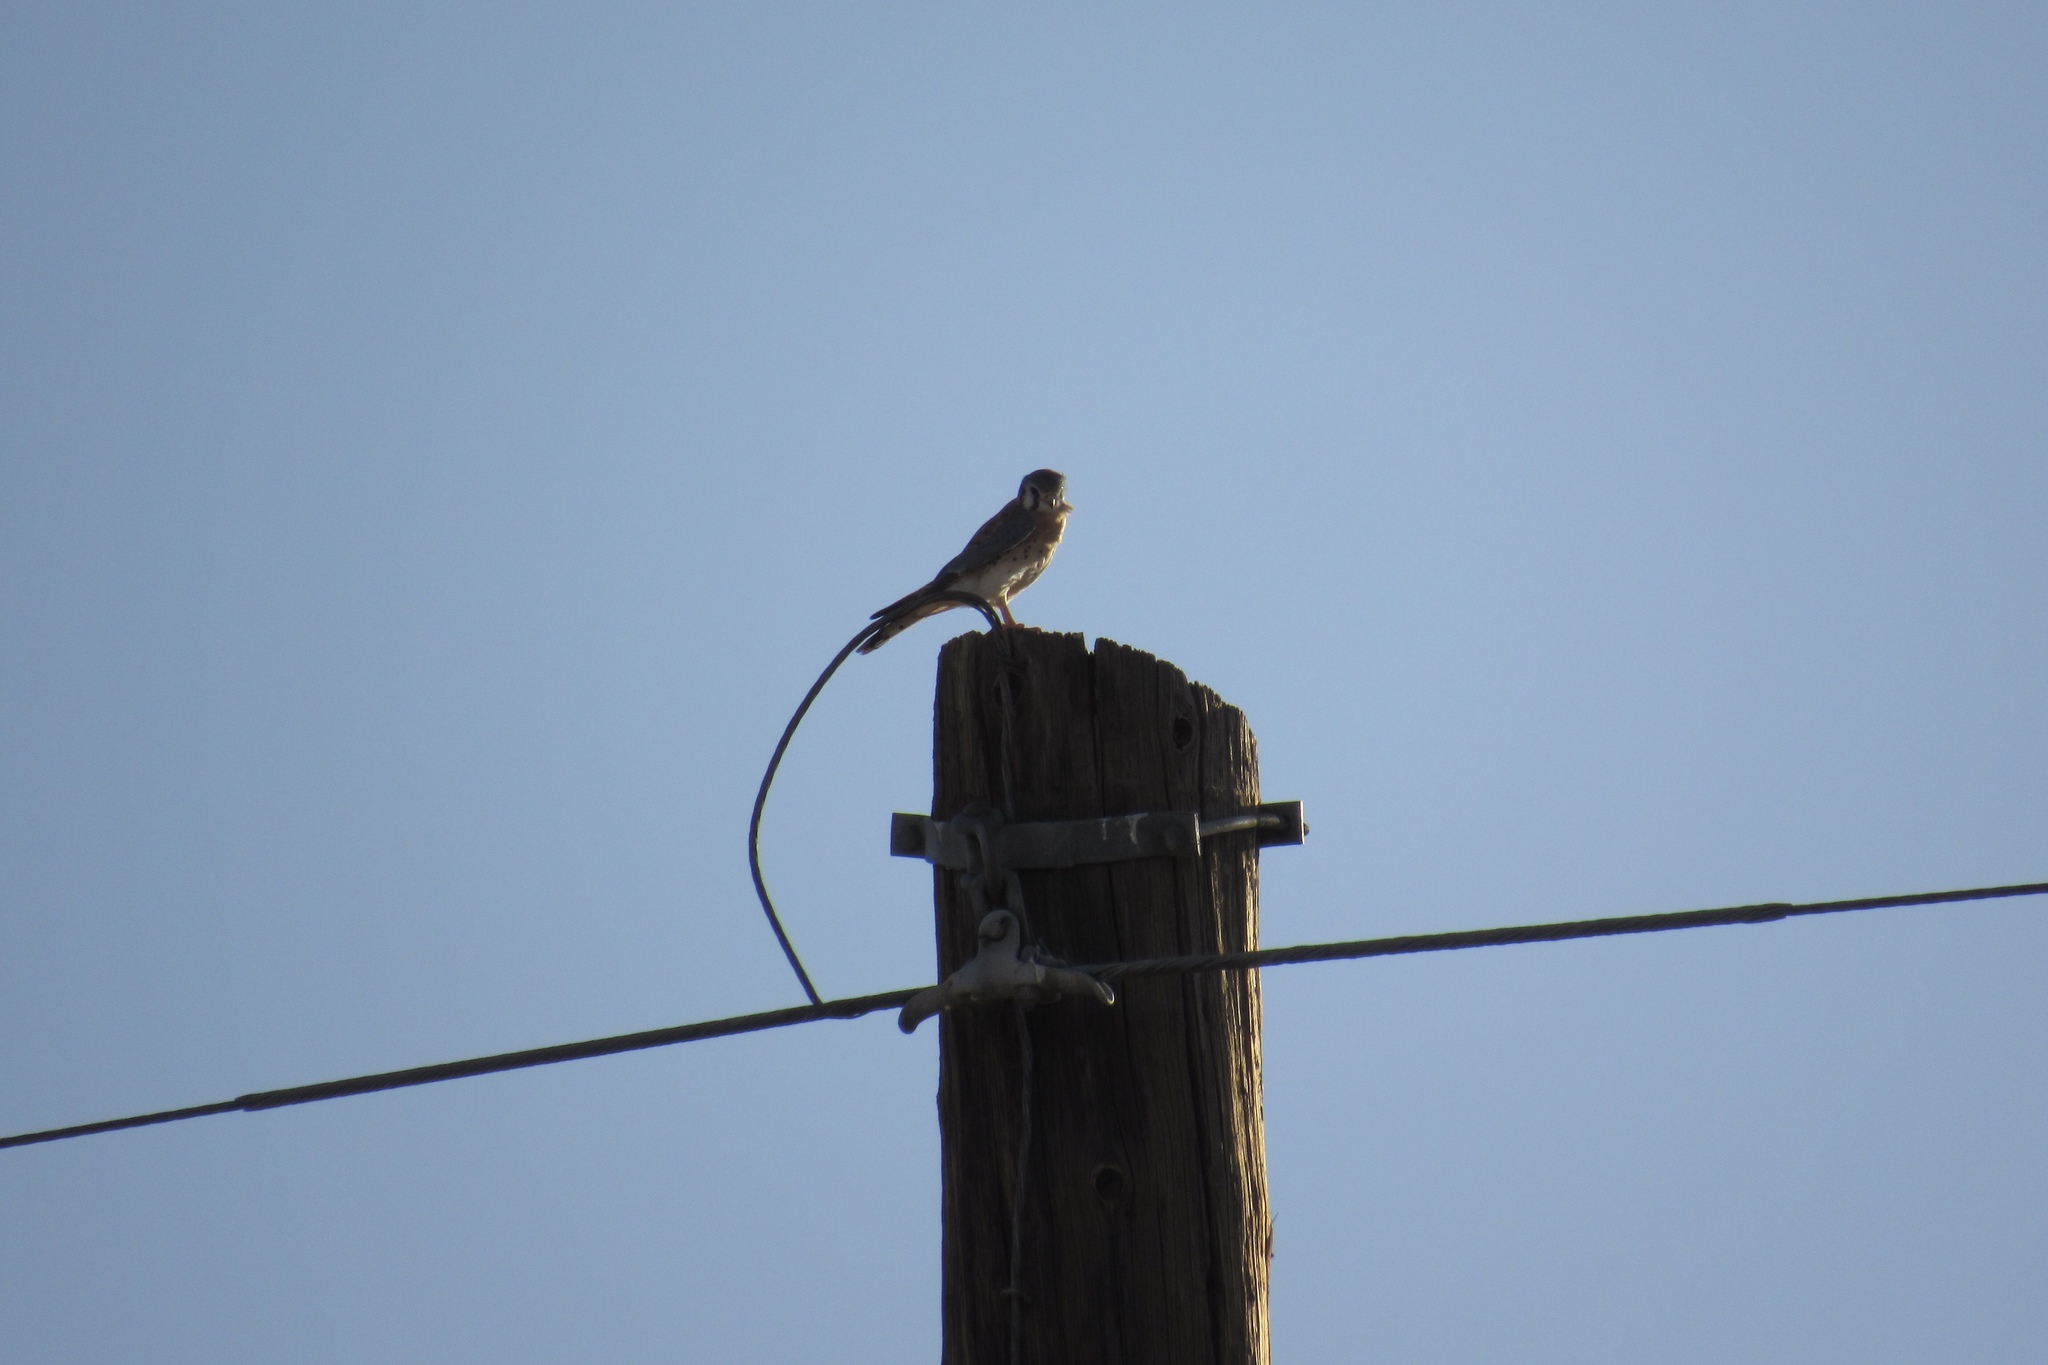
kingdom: Animalia
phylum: Chordata
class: Aves
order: Falconiformes
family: Falconidae
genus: Falco
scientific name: Falco sparverius
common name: American kestrel
